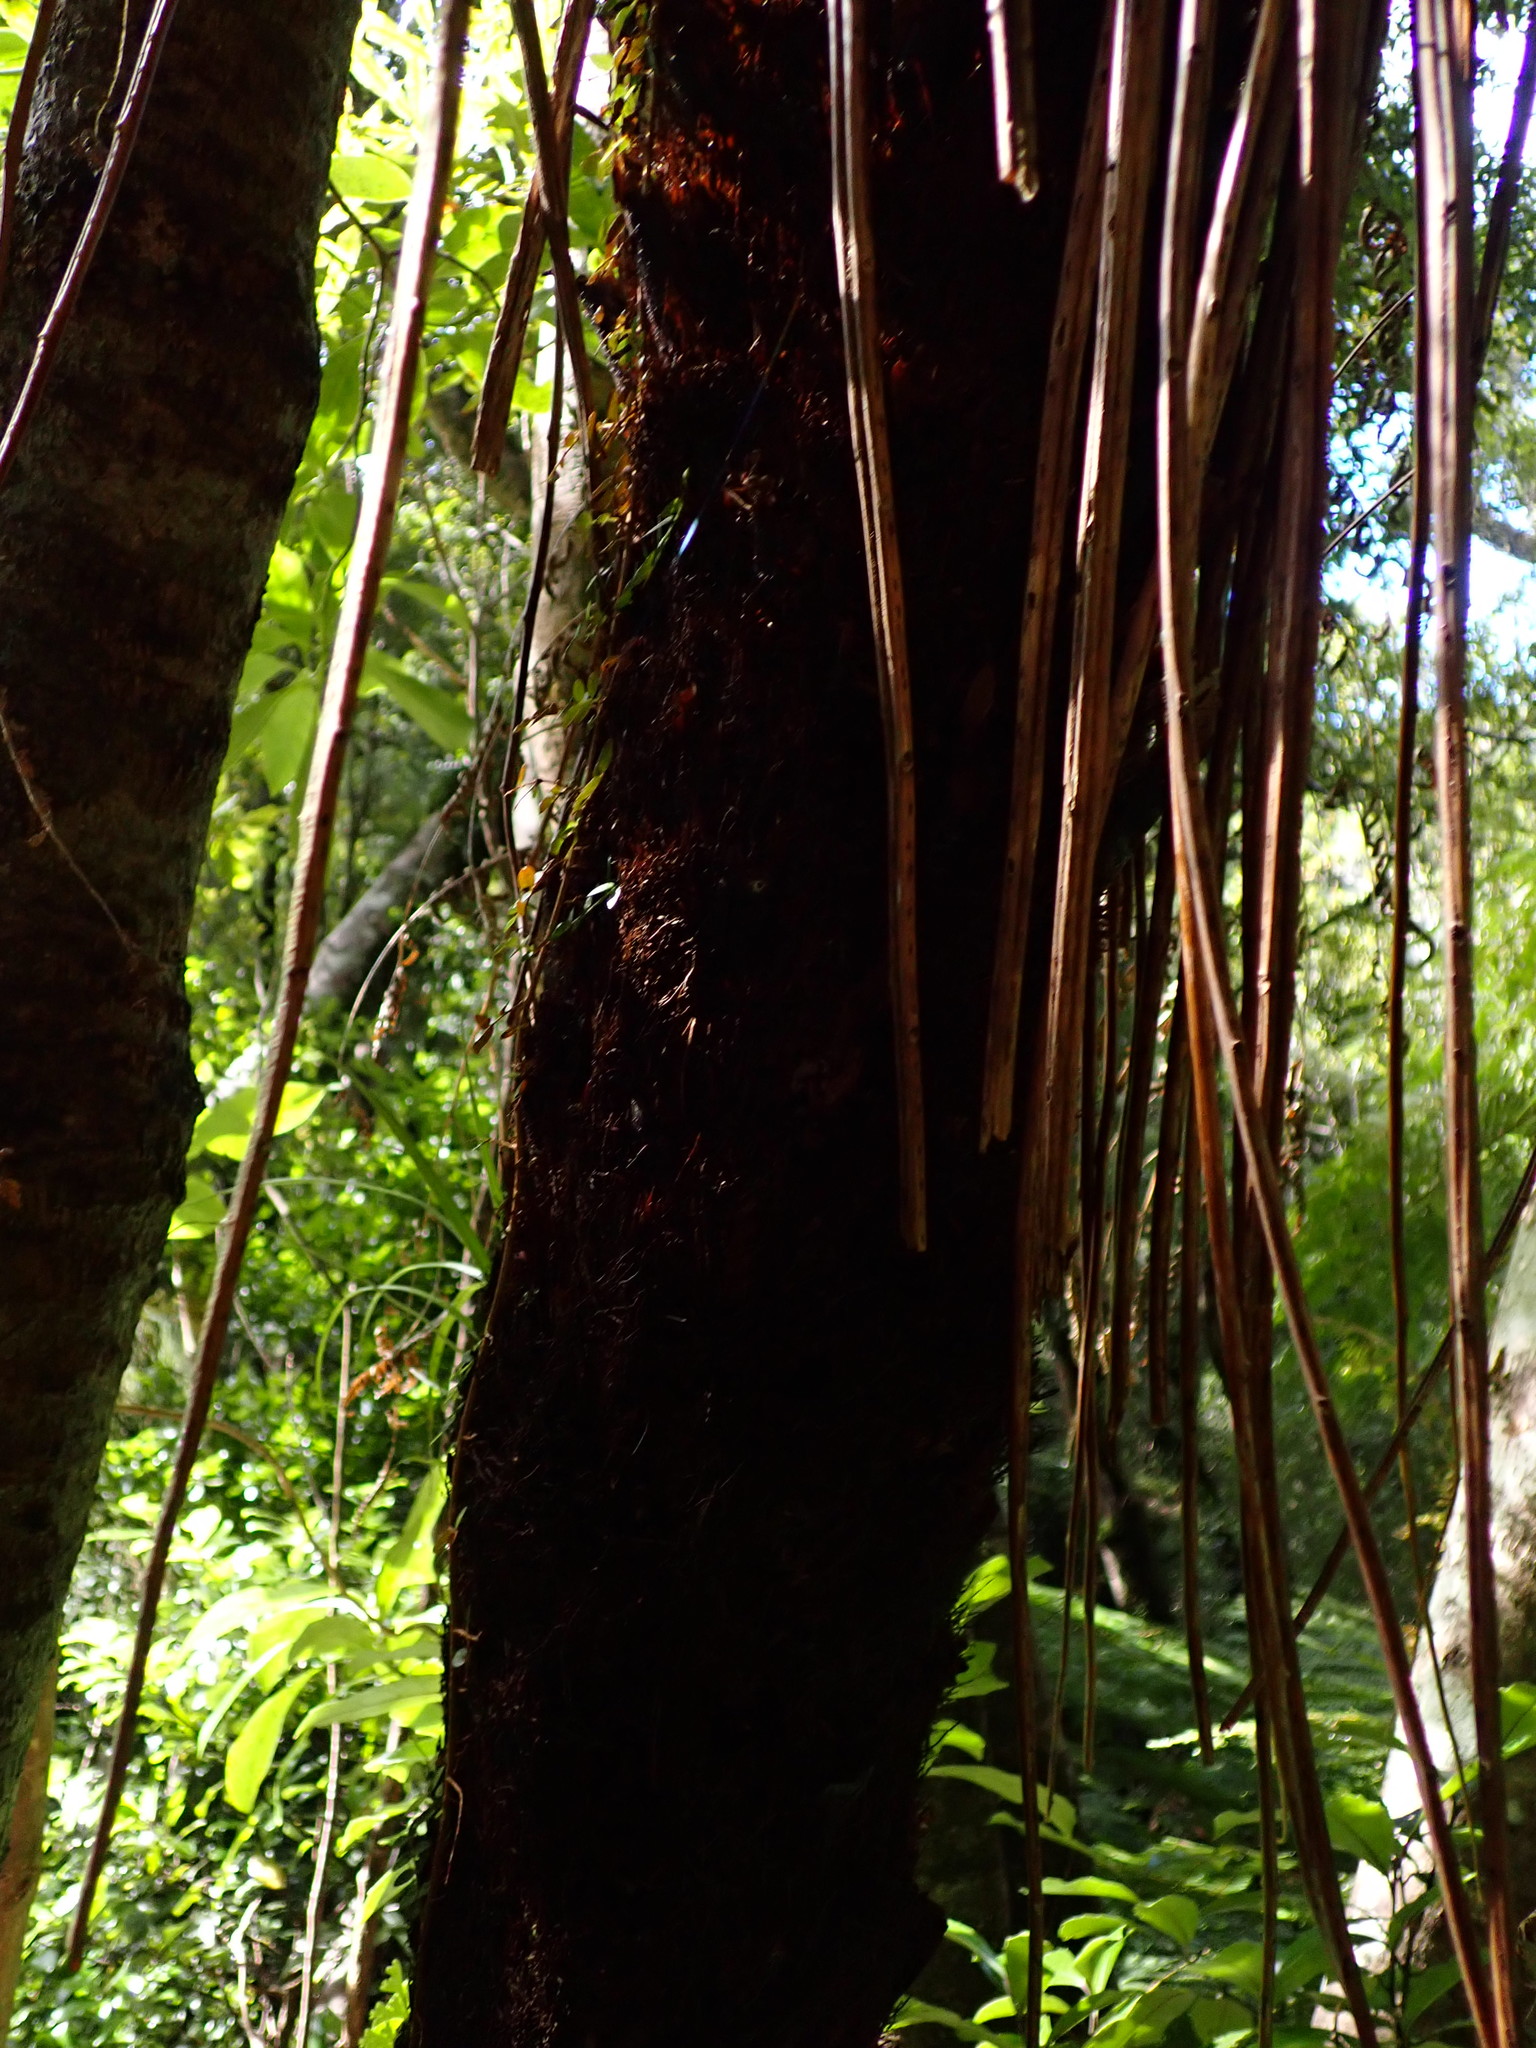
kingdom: Plantae
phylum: Tracheophyta
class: Polypodiopsida
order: Cyatheales
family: Cyatheaceae
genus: Alsophila
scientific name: Alsophila smithii
